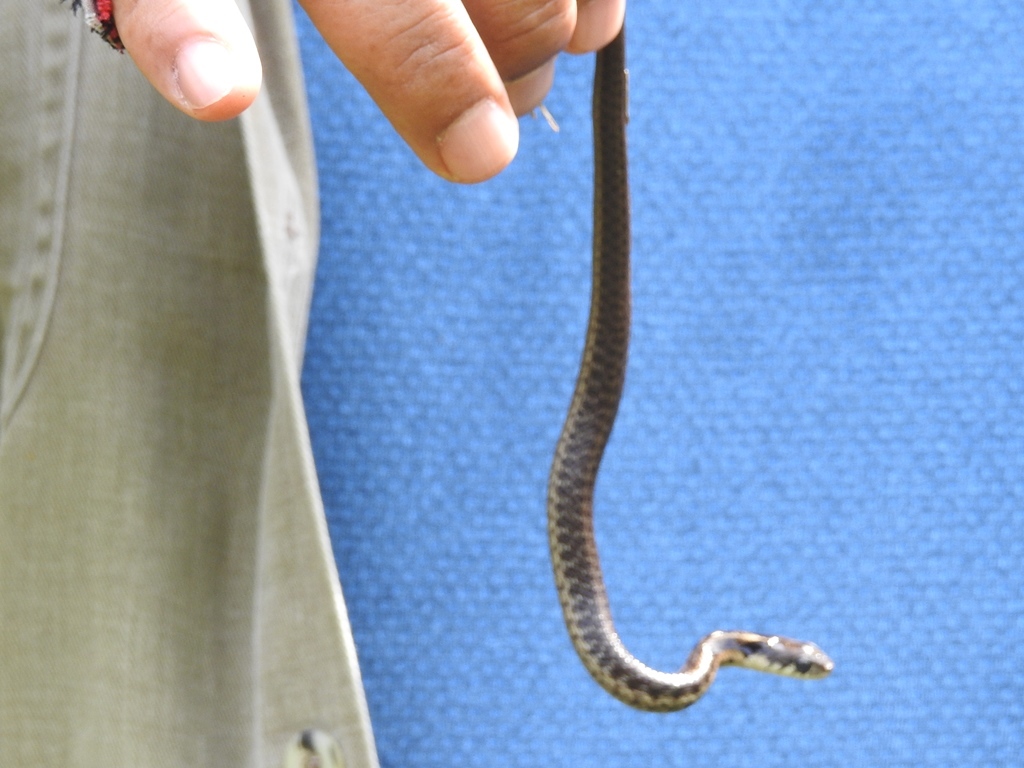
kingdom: Animalia
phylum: Chordata
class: Squamata
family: Colubridae
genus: Thamnophis
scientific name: Thamnophis fulvus
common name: Highland garter snake
